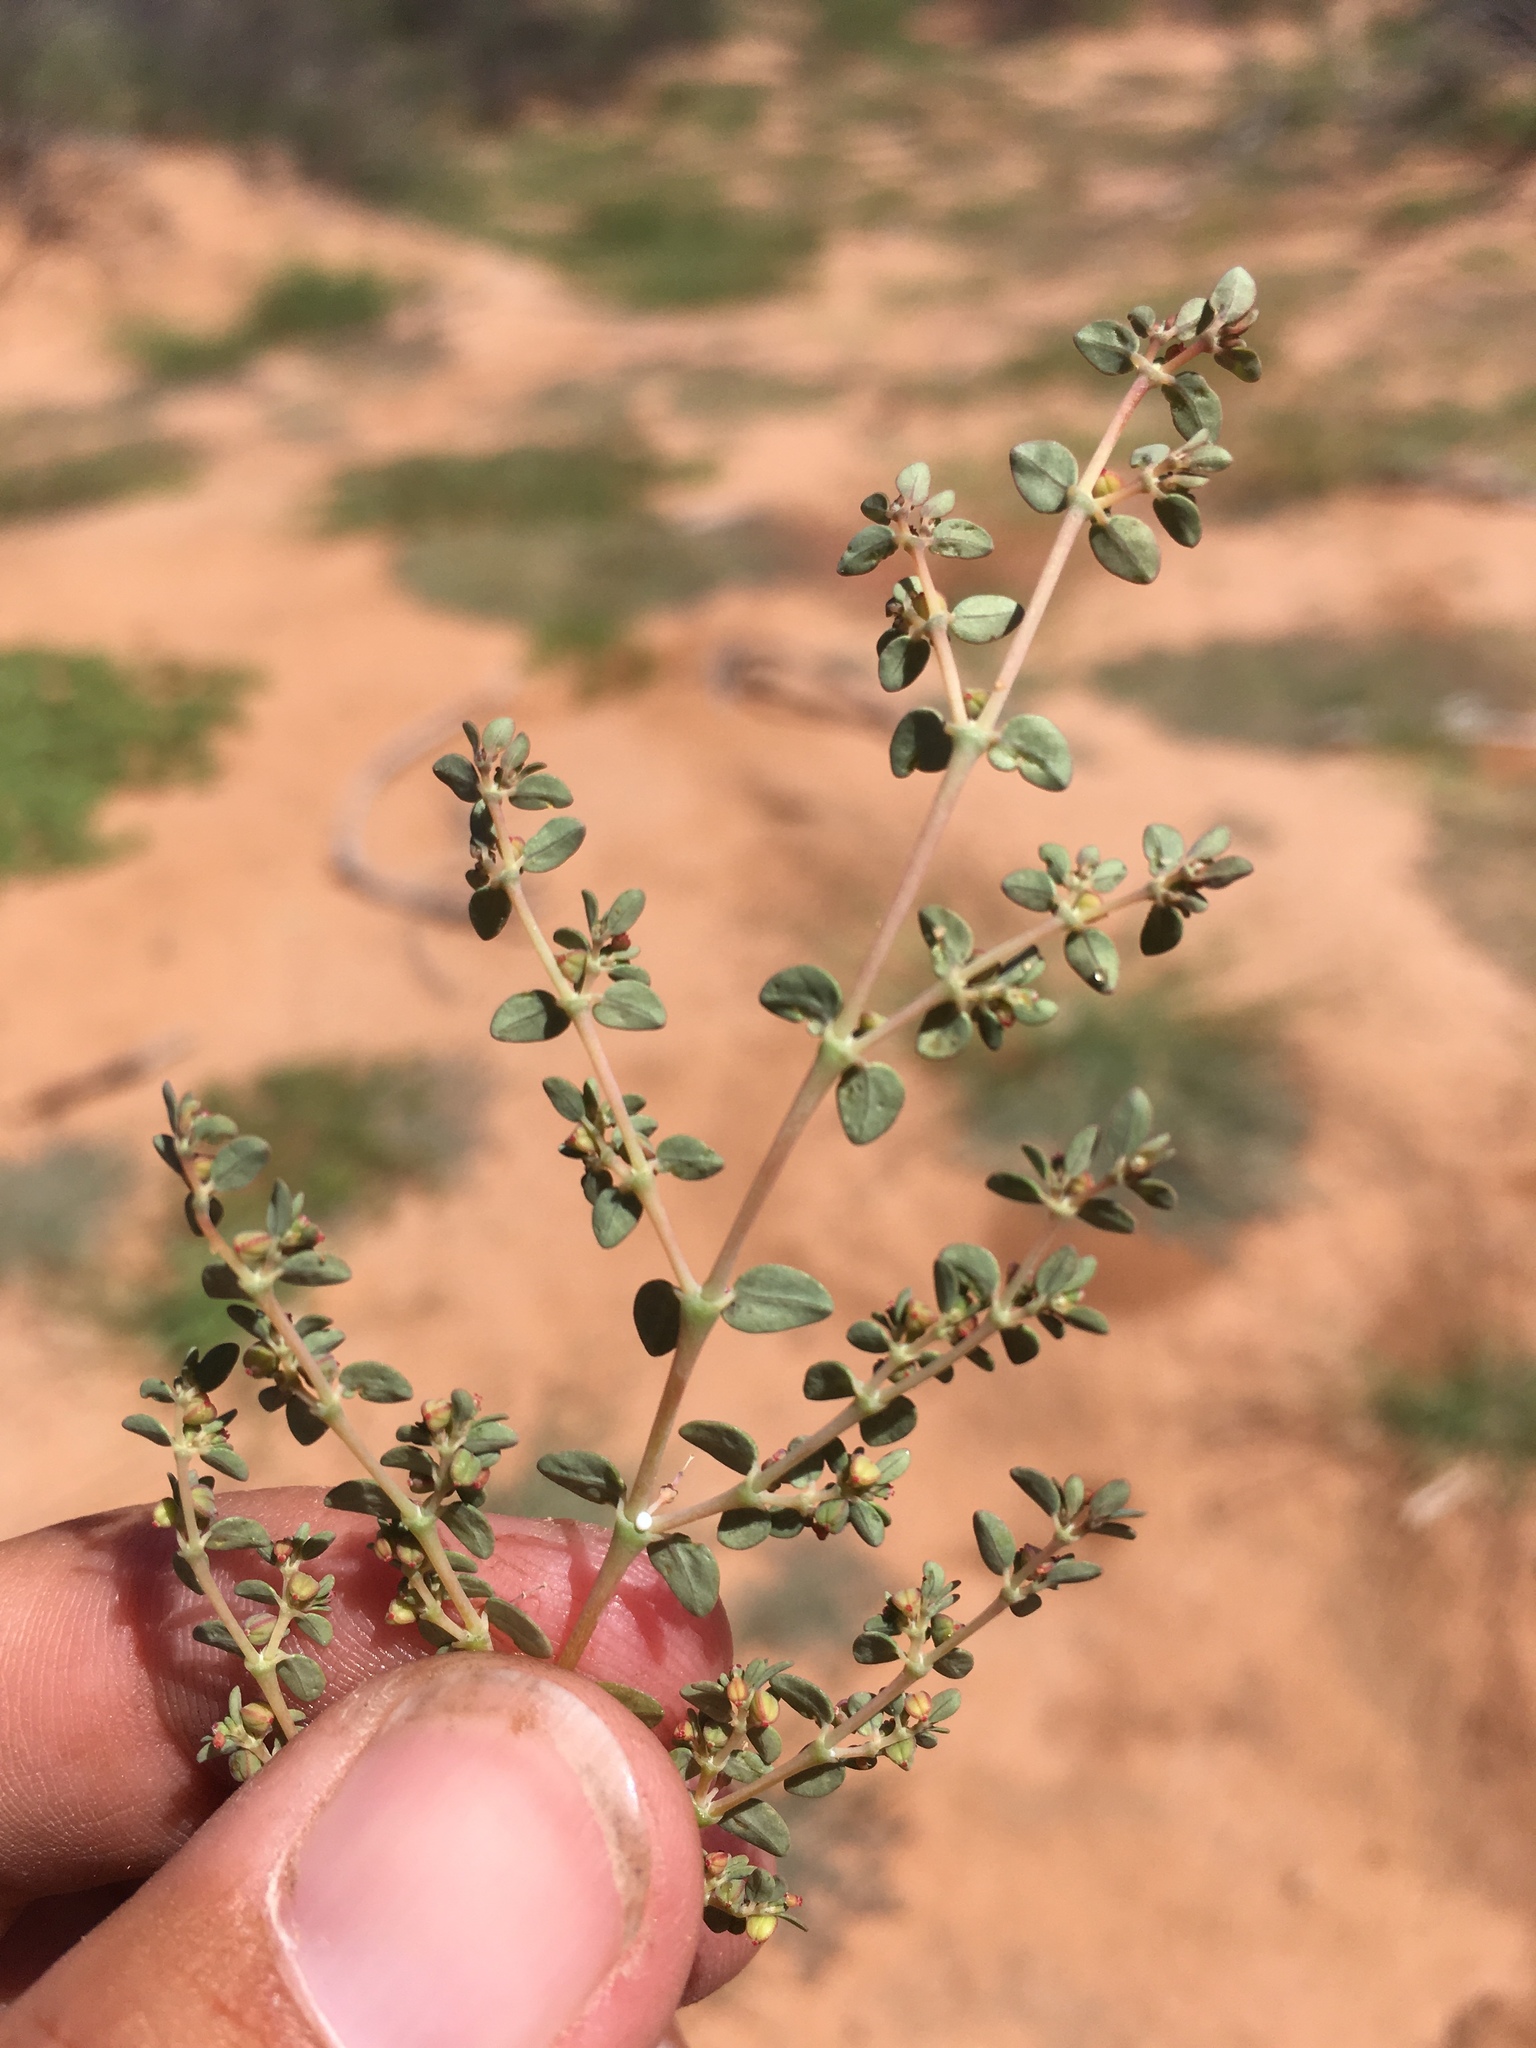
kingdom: Plantae
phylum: Tracheophyta
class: Magnoliopsida
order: Malpighiales
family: Euphorbiaceae
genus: Euphorbia
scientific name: Euphorbia micromera
